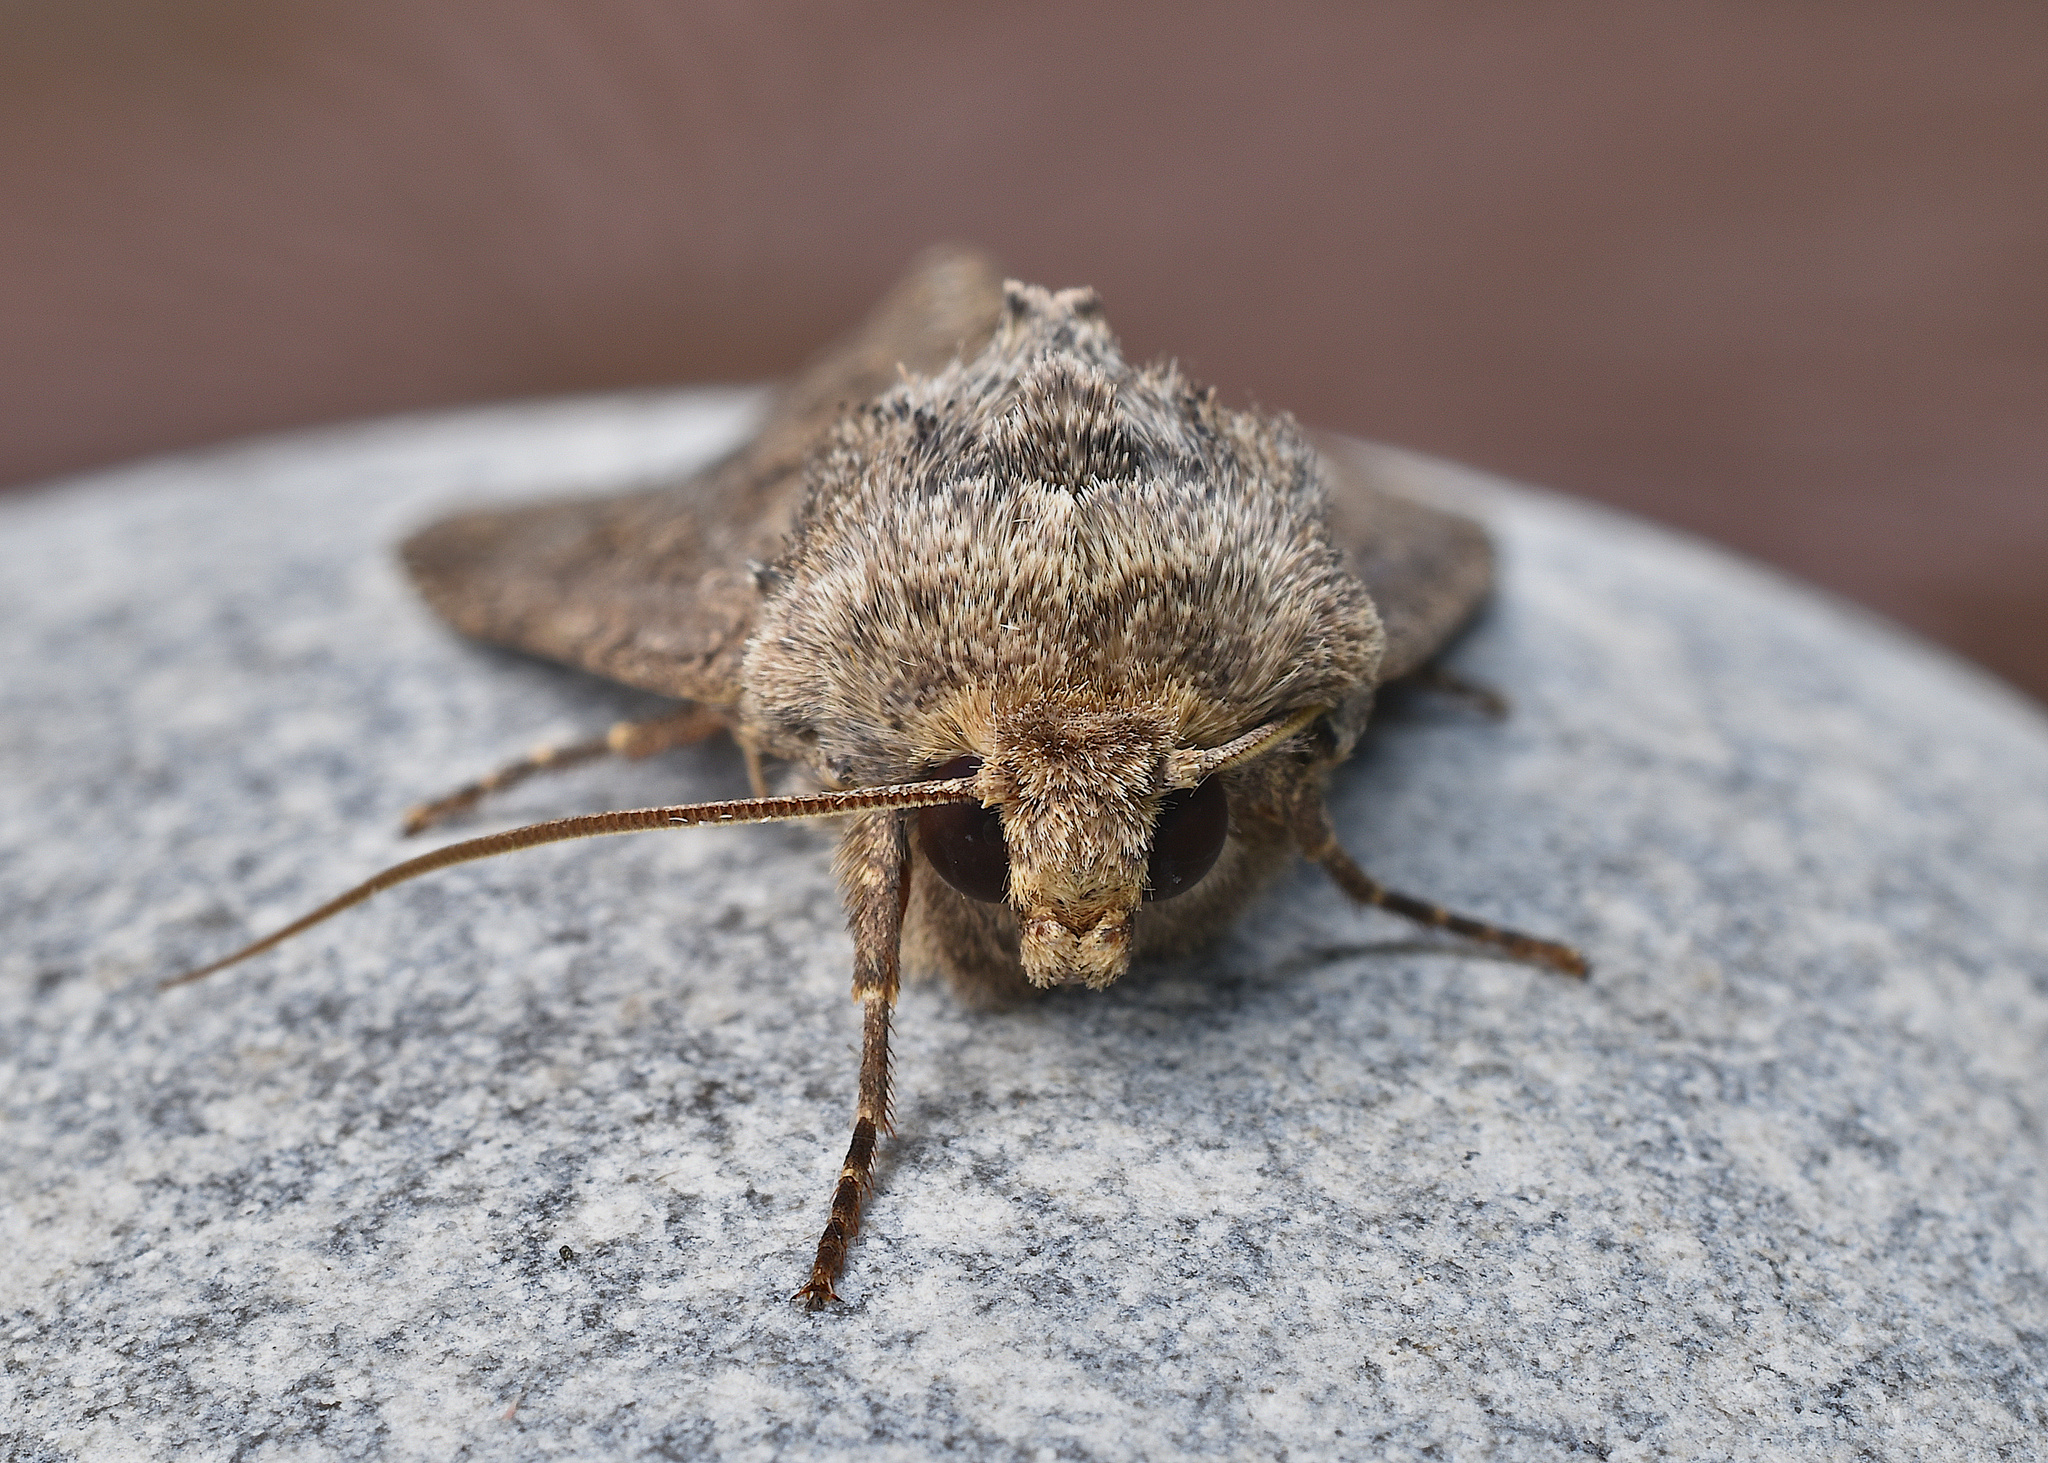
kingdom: Animalia
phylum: Arthropoda
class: Insecta
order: Lepidoptera
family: Noctuidae
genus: Apamea
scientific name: Apamea devastator
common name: Glassy cutworm
